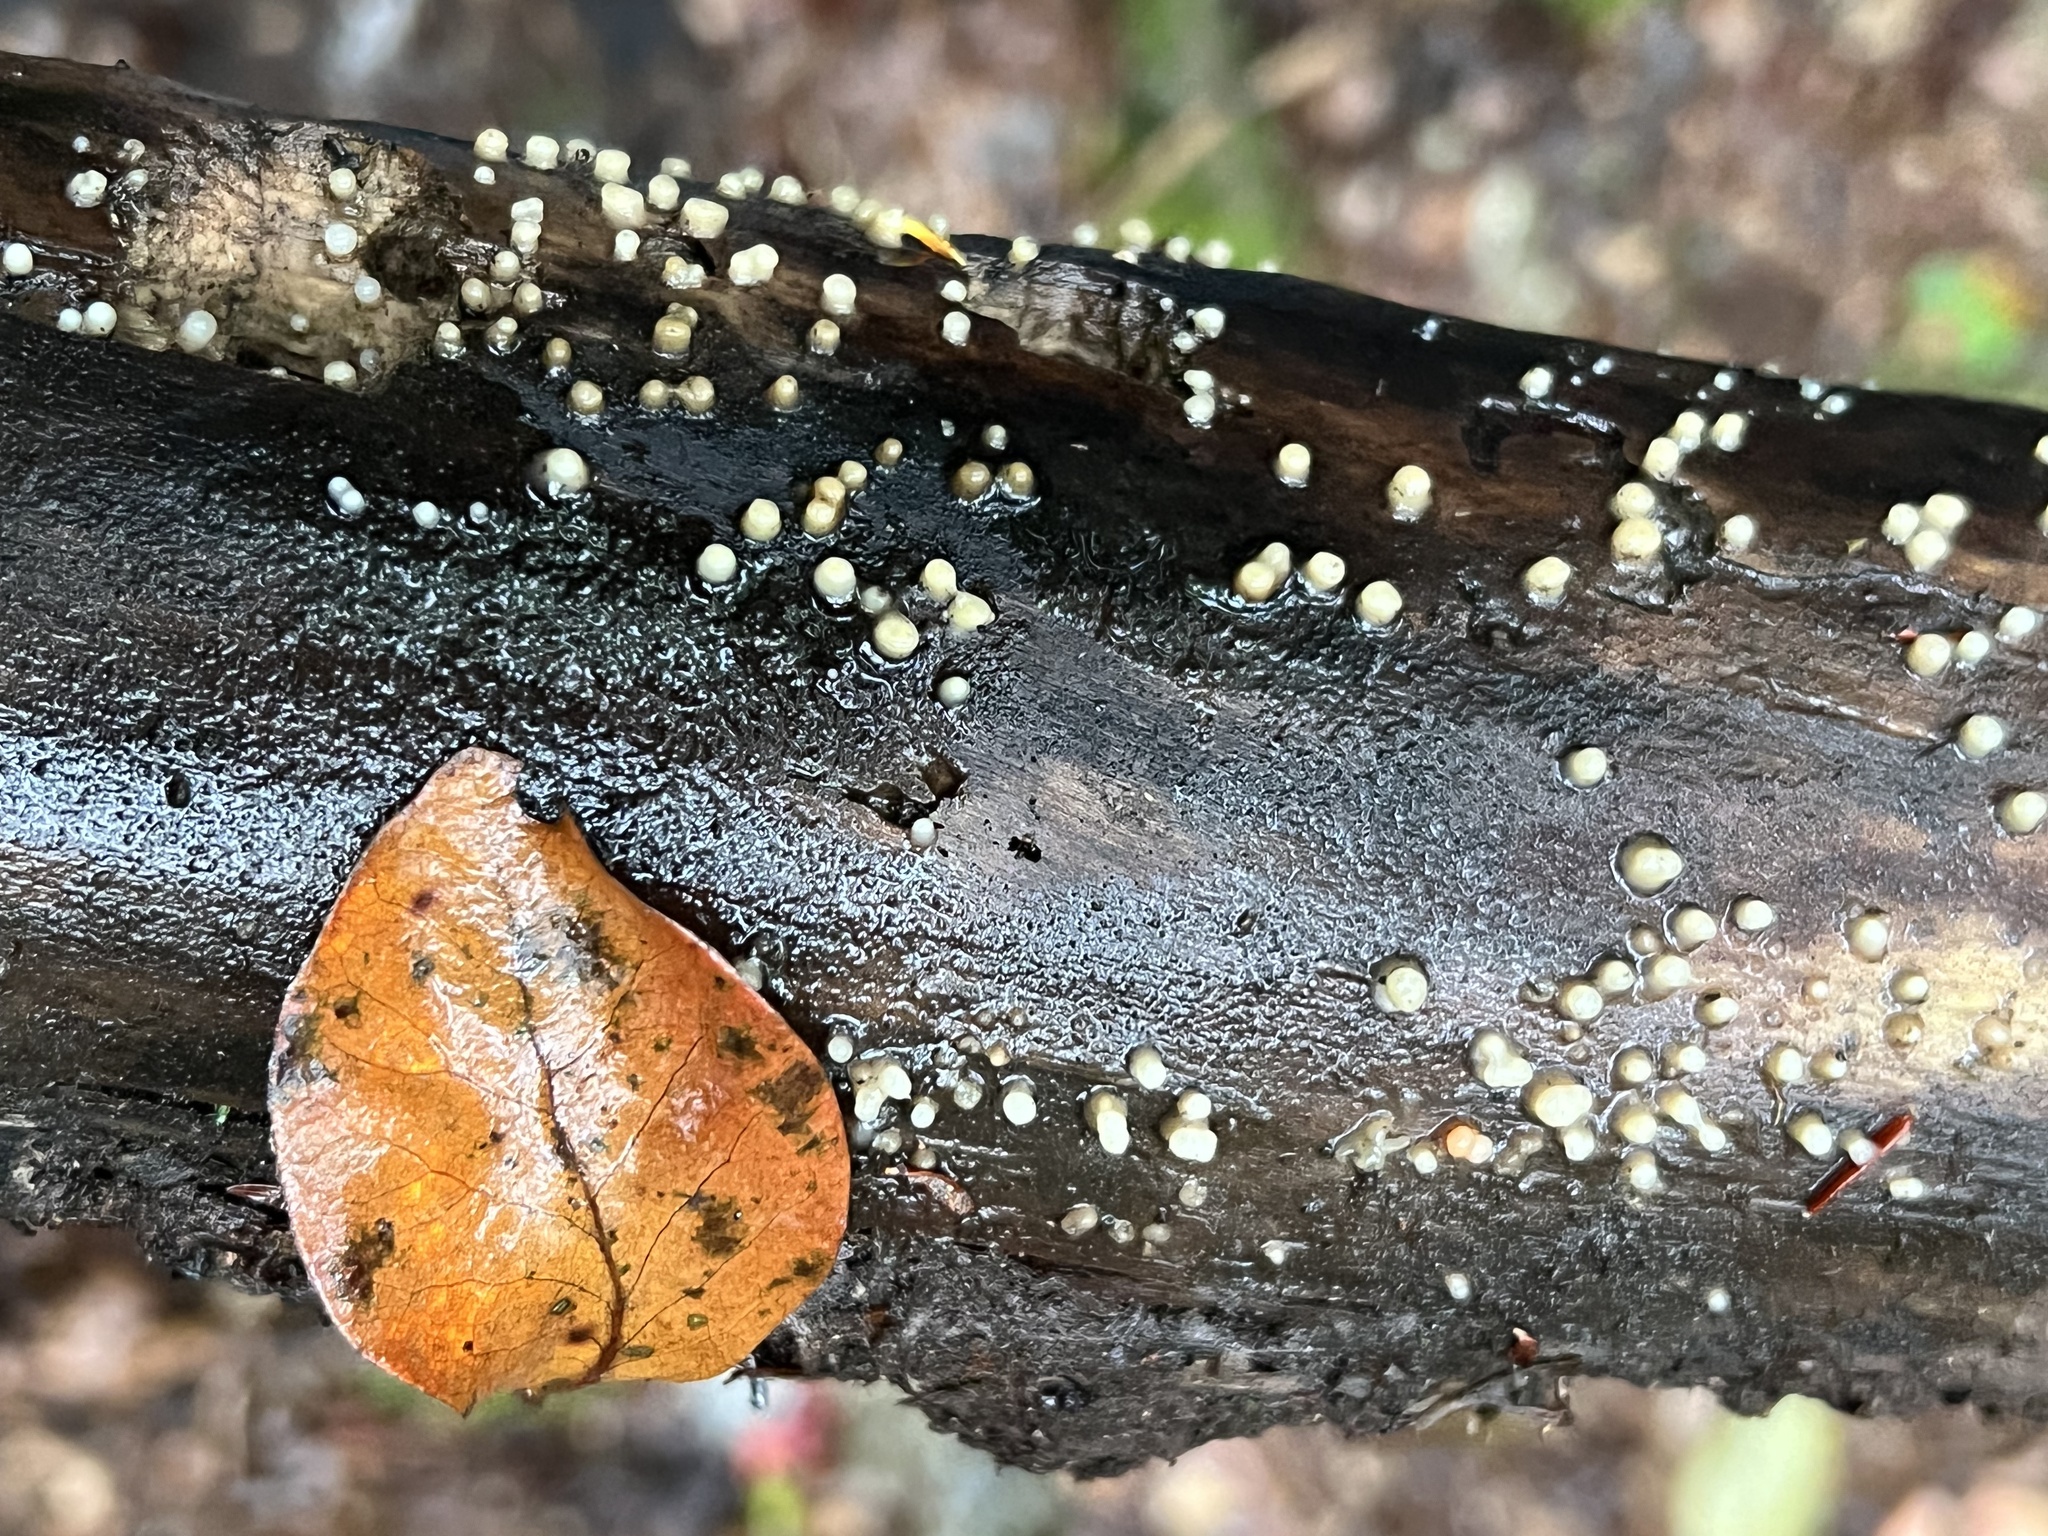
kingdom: Fungi
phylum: Basidiomycota
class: Atractiellomycetes
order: Atractiellales
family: Phleogenaceae
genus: Helicogloea
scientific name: Helicogloea compressa
